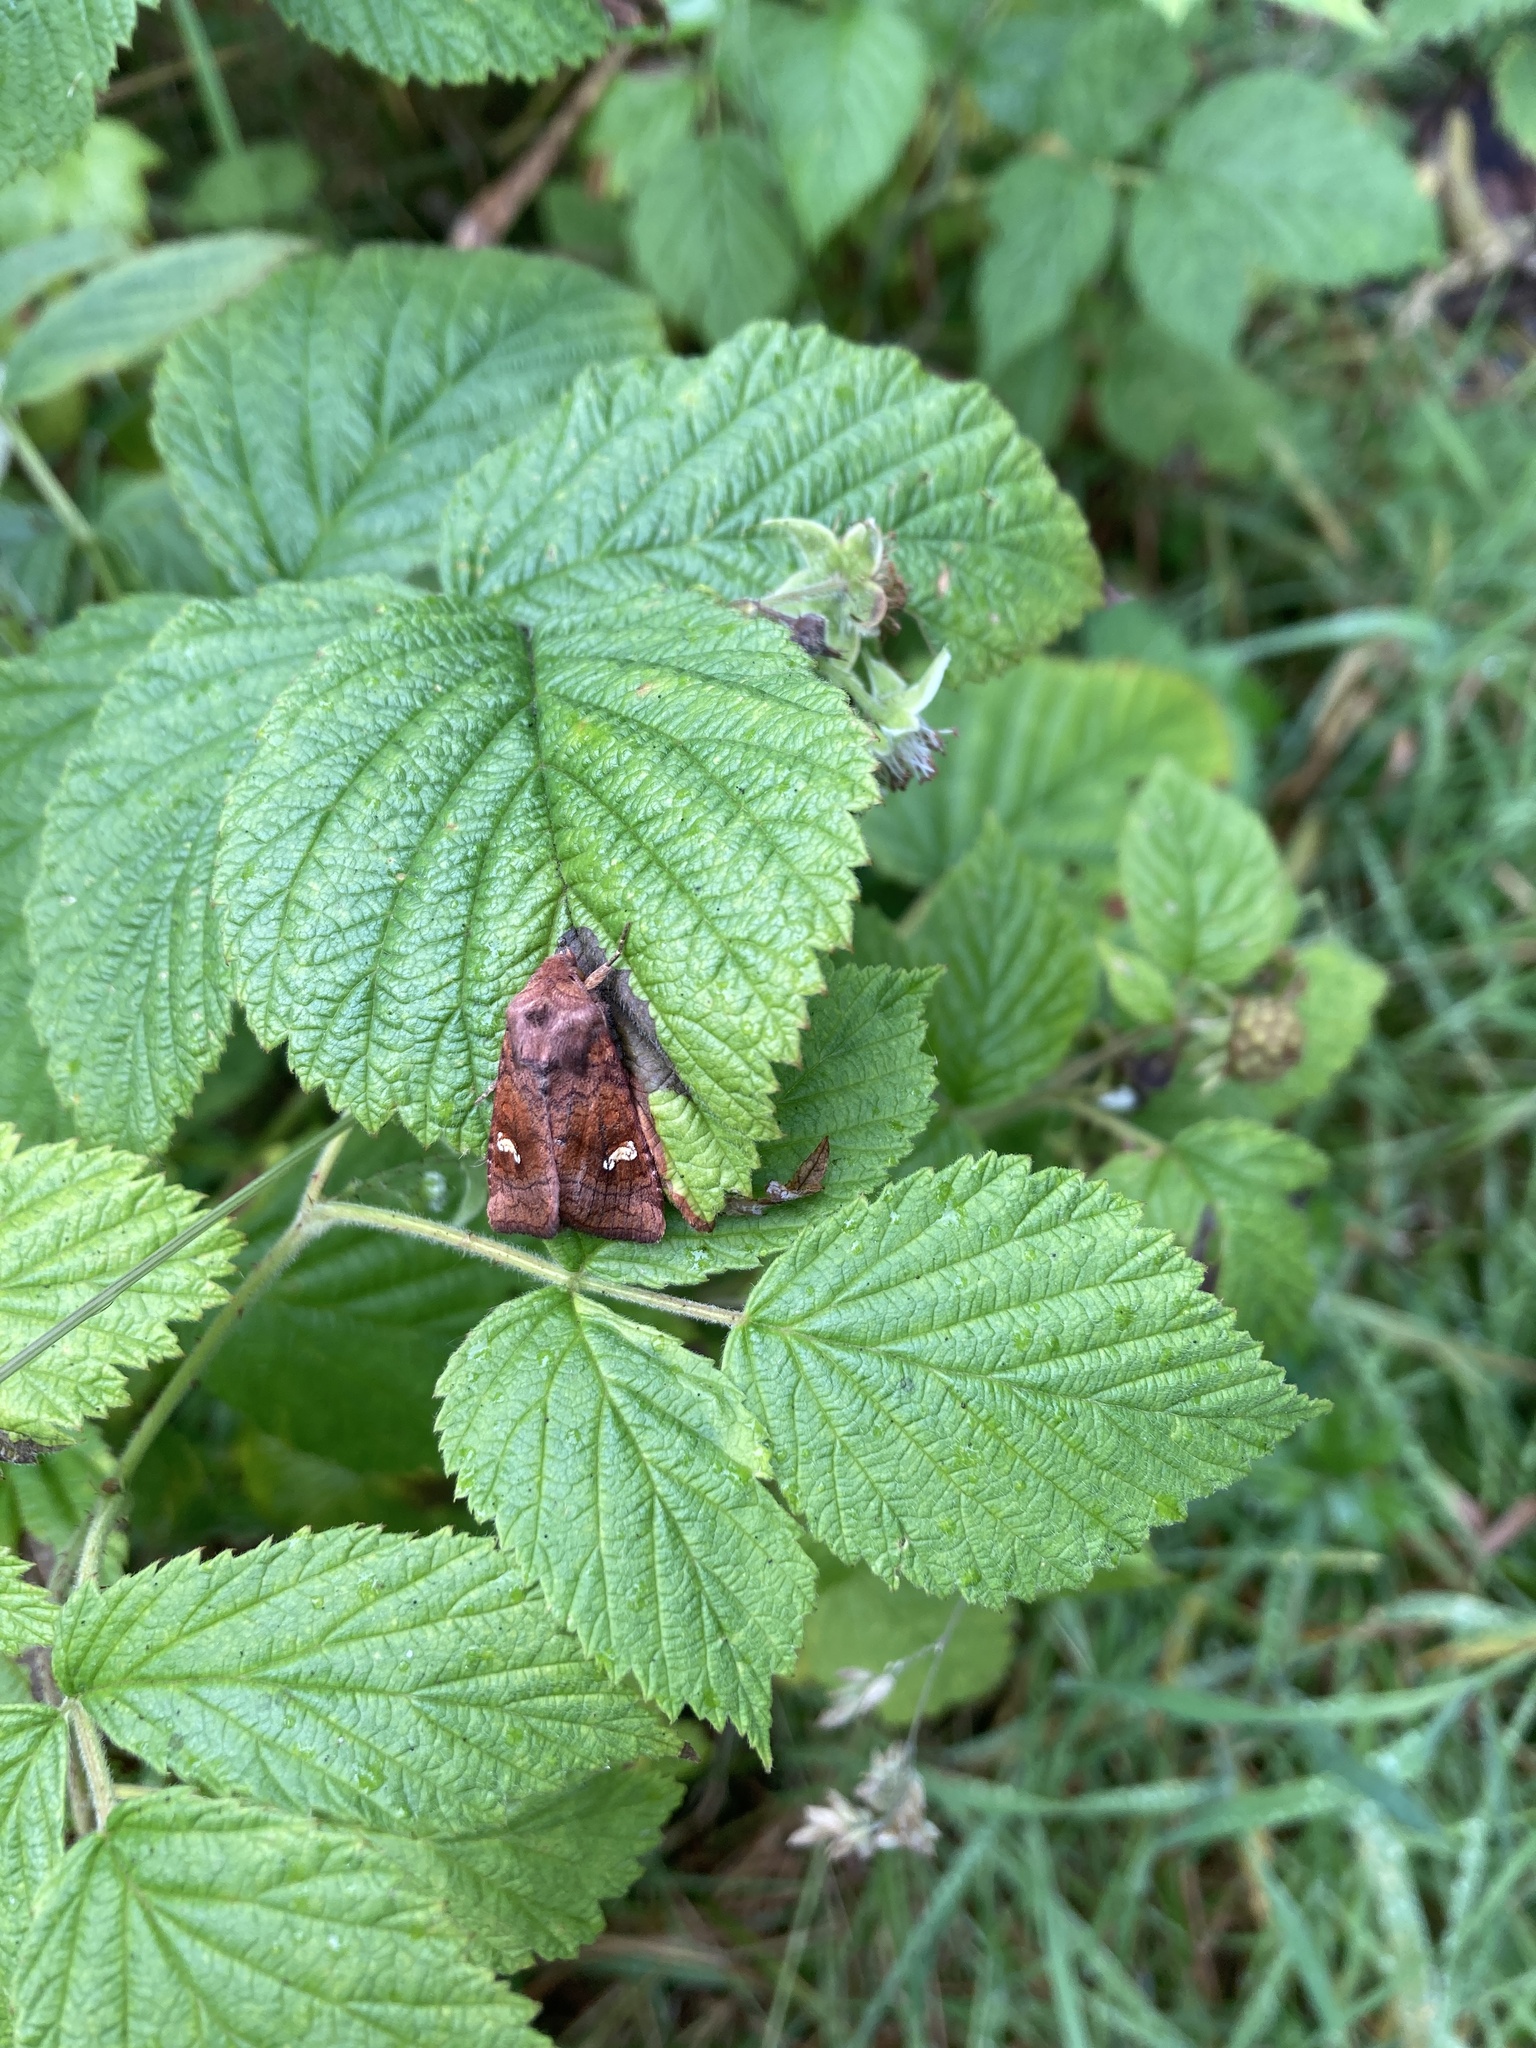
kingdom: Animalia
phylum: Arthropoda
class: Insecta
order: Lepidoptera
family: Noctuidae
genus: Amphipoea
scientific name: Amphipoea
